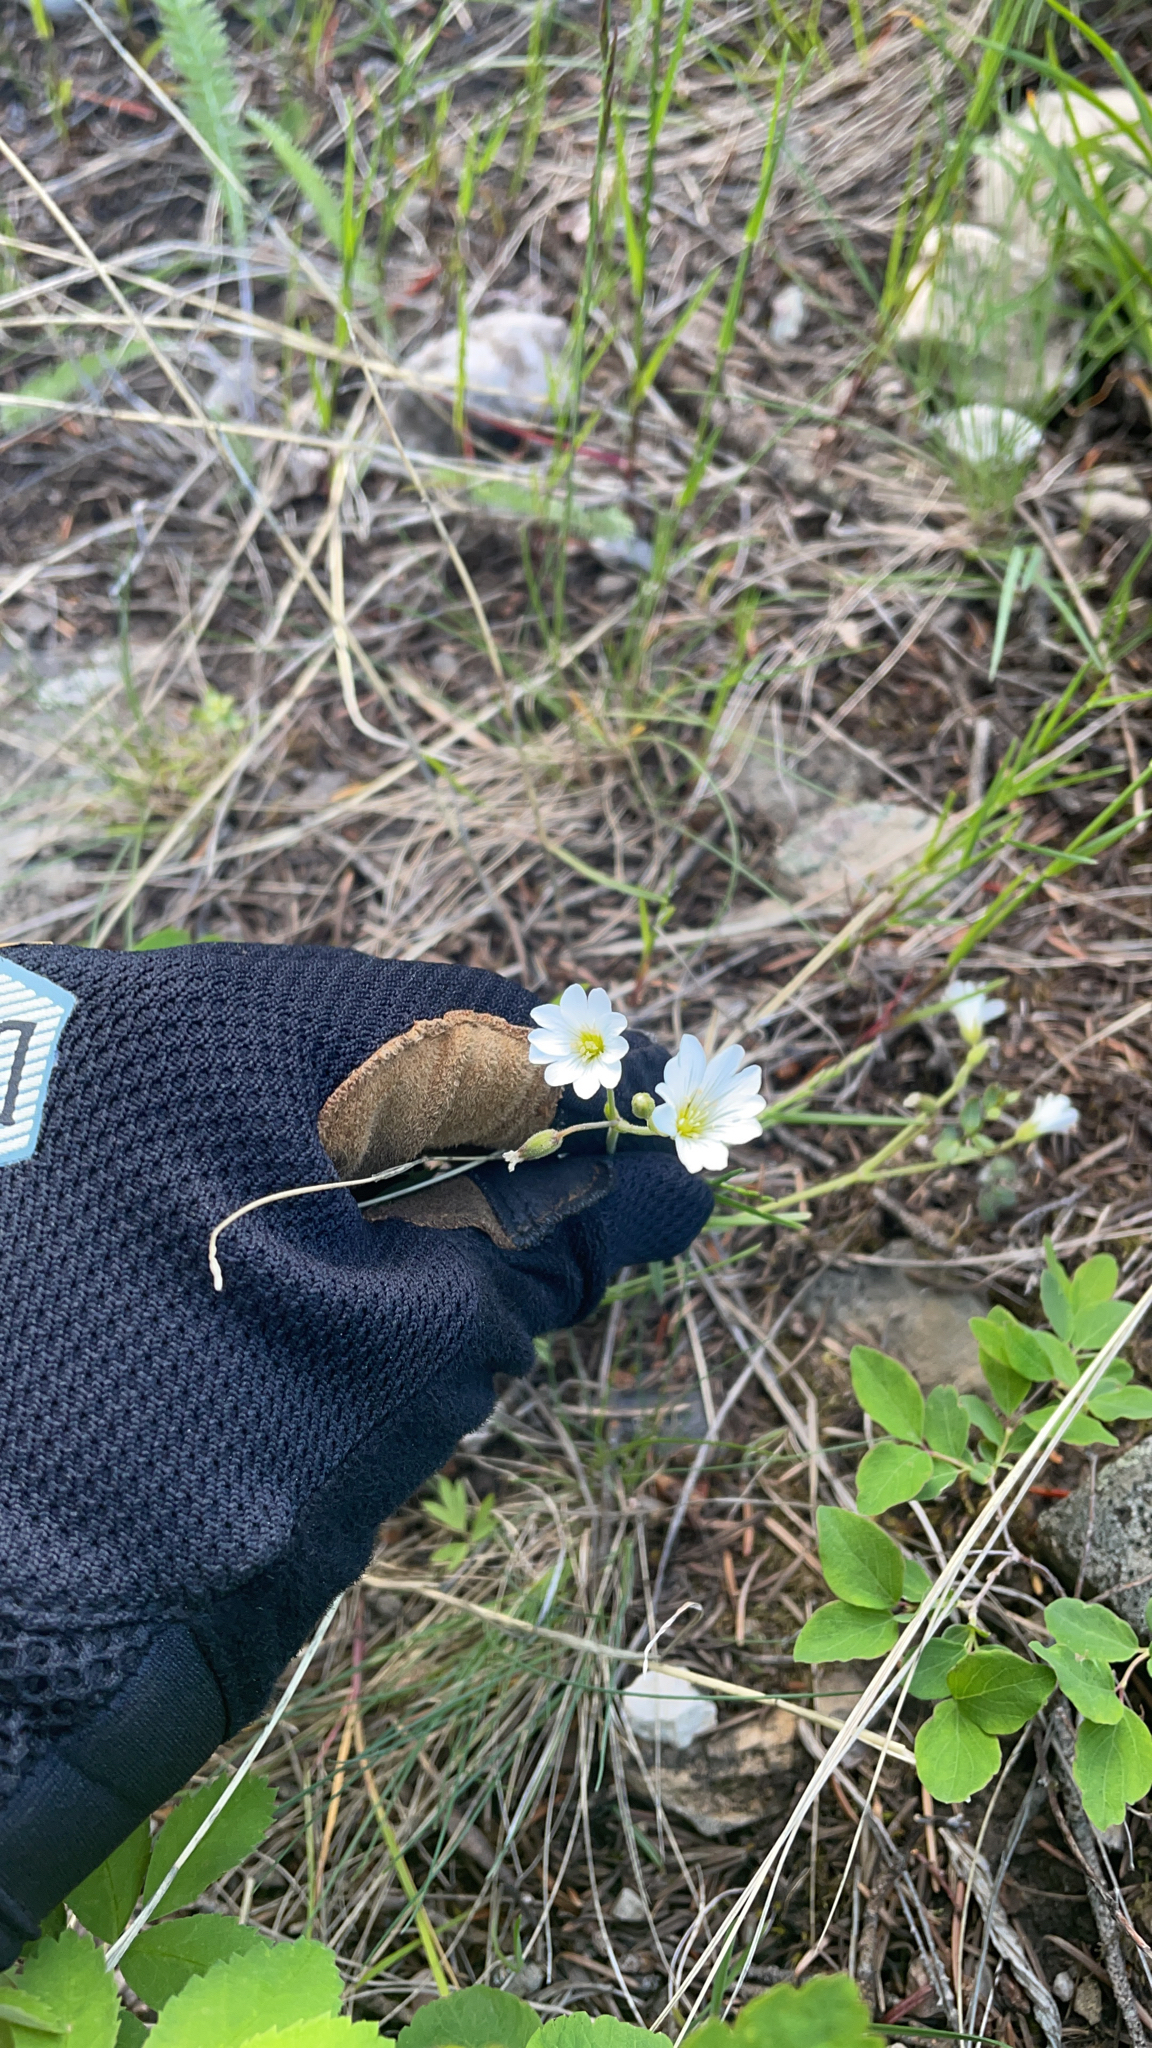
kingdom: Plantae
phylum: Tracheophyta
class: Magnoliopsida
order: Caryophyllales
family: Caryophyllaceae
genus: Cerastium
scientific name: Cerastium arvense
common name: Field mouse-ear
